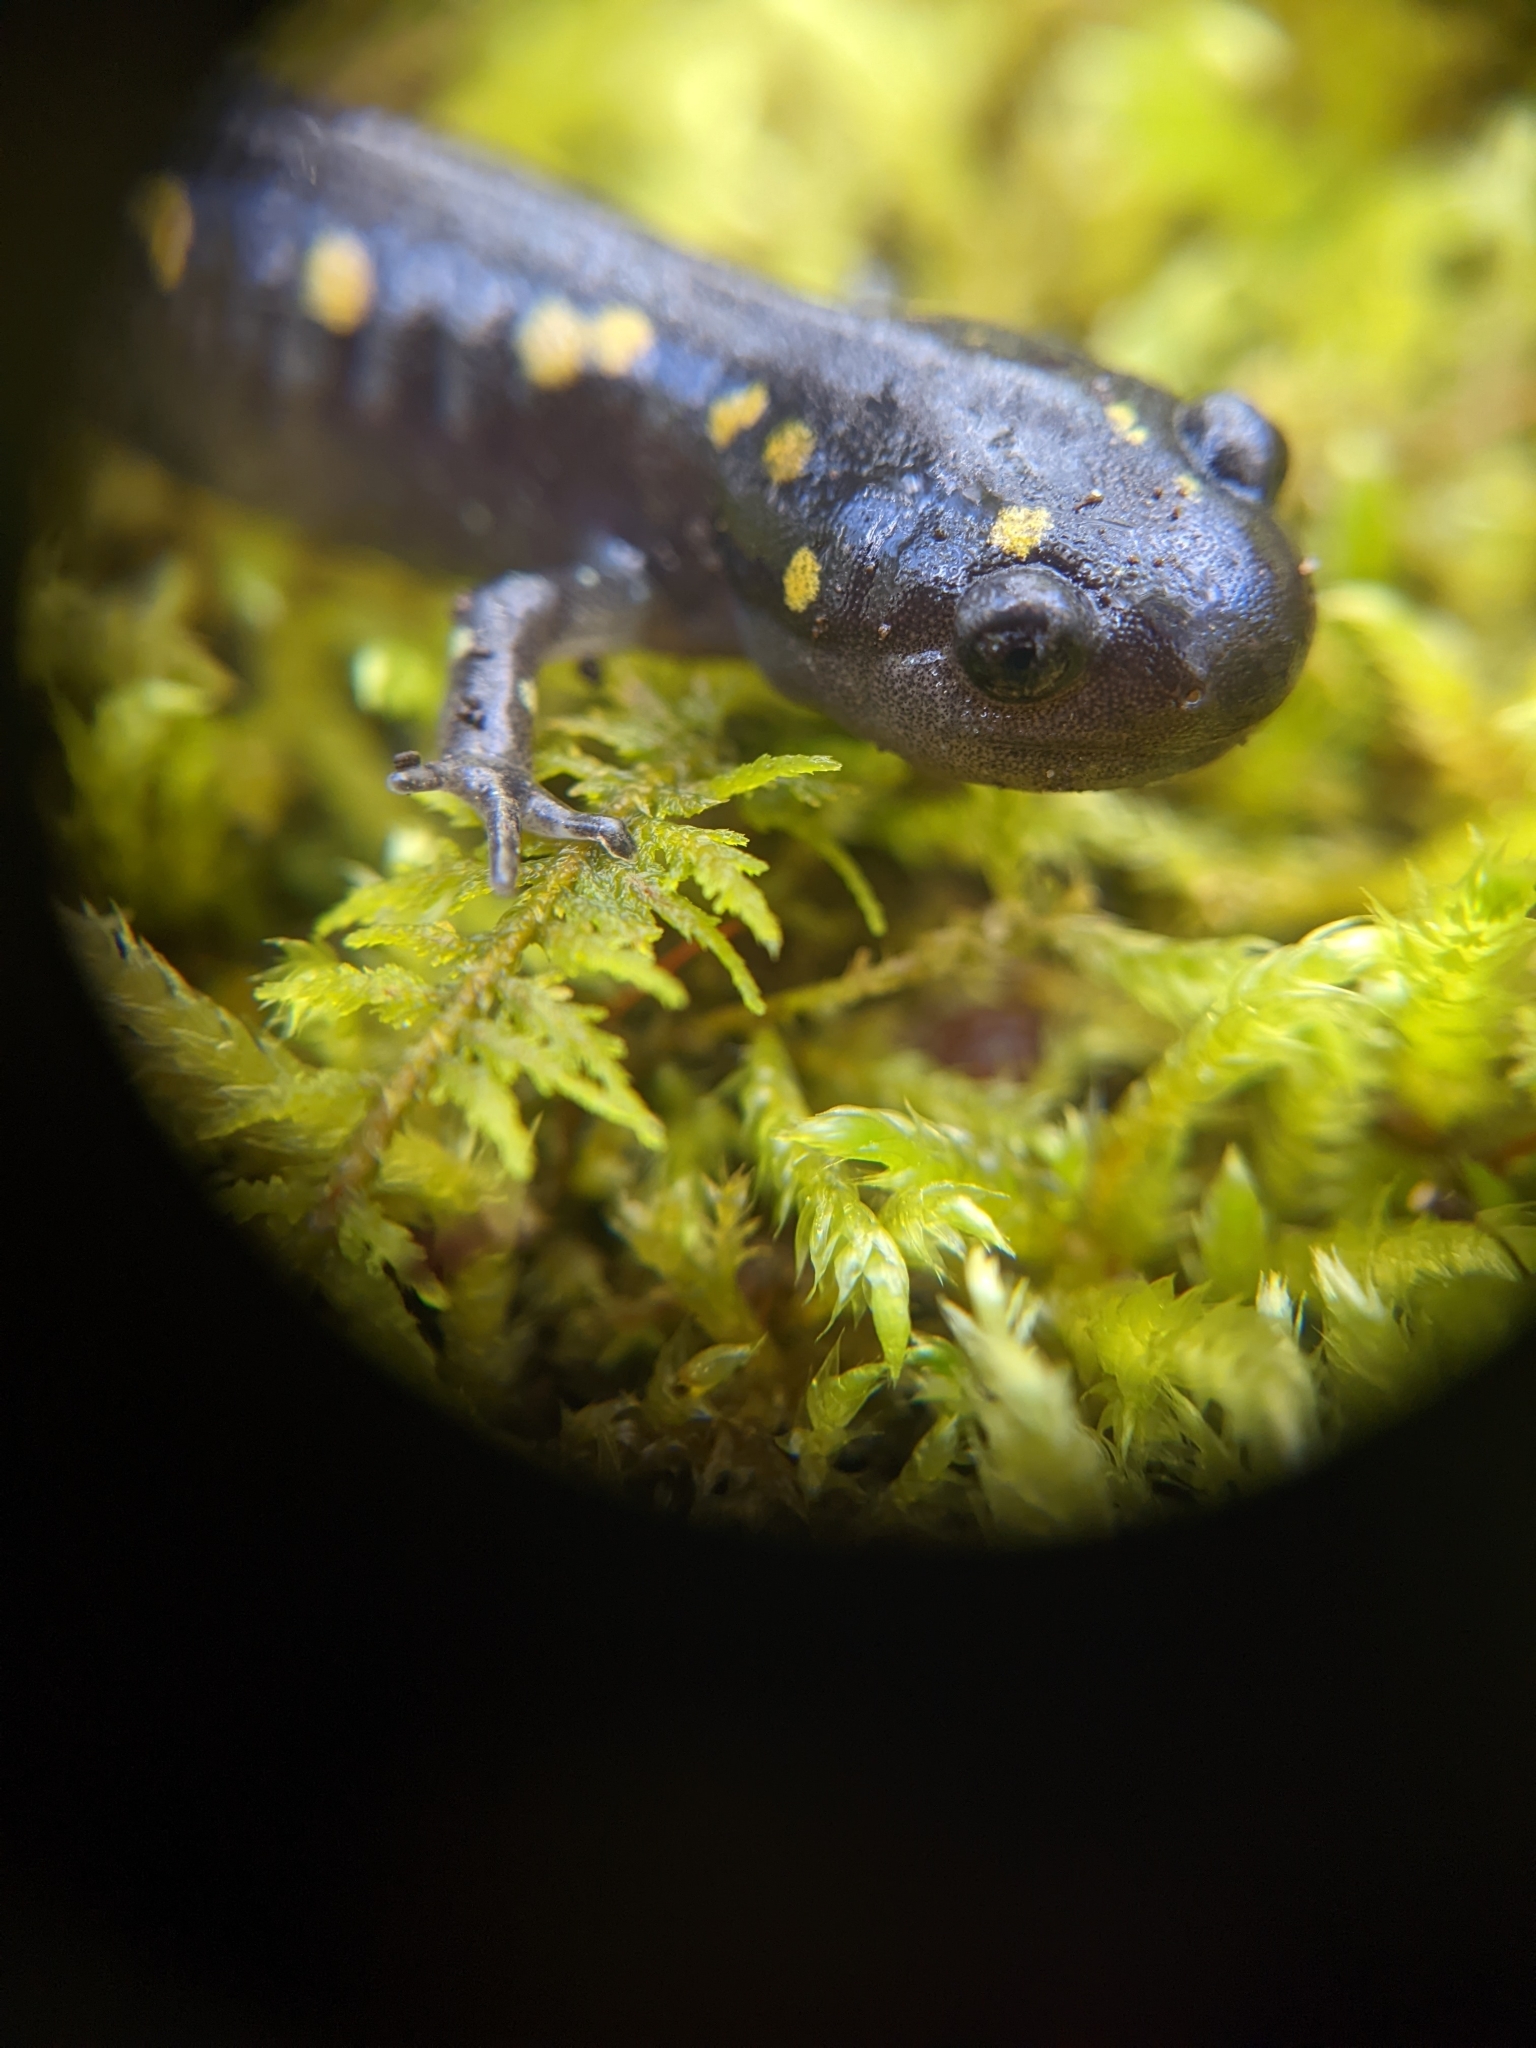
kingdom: Animalia
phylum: Chordata
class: Amphibia
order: Caudata
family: Ambystomatidae
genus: Ambystoma
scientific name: Ambystoma maculatum
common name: Spotted salamander
